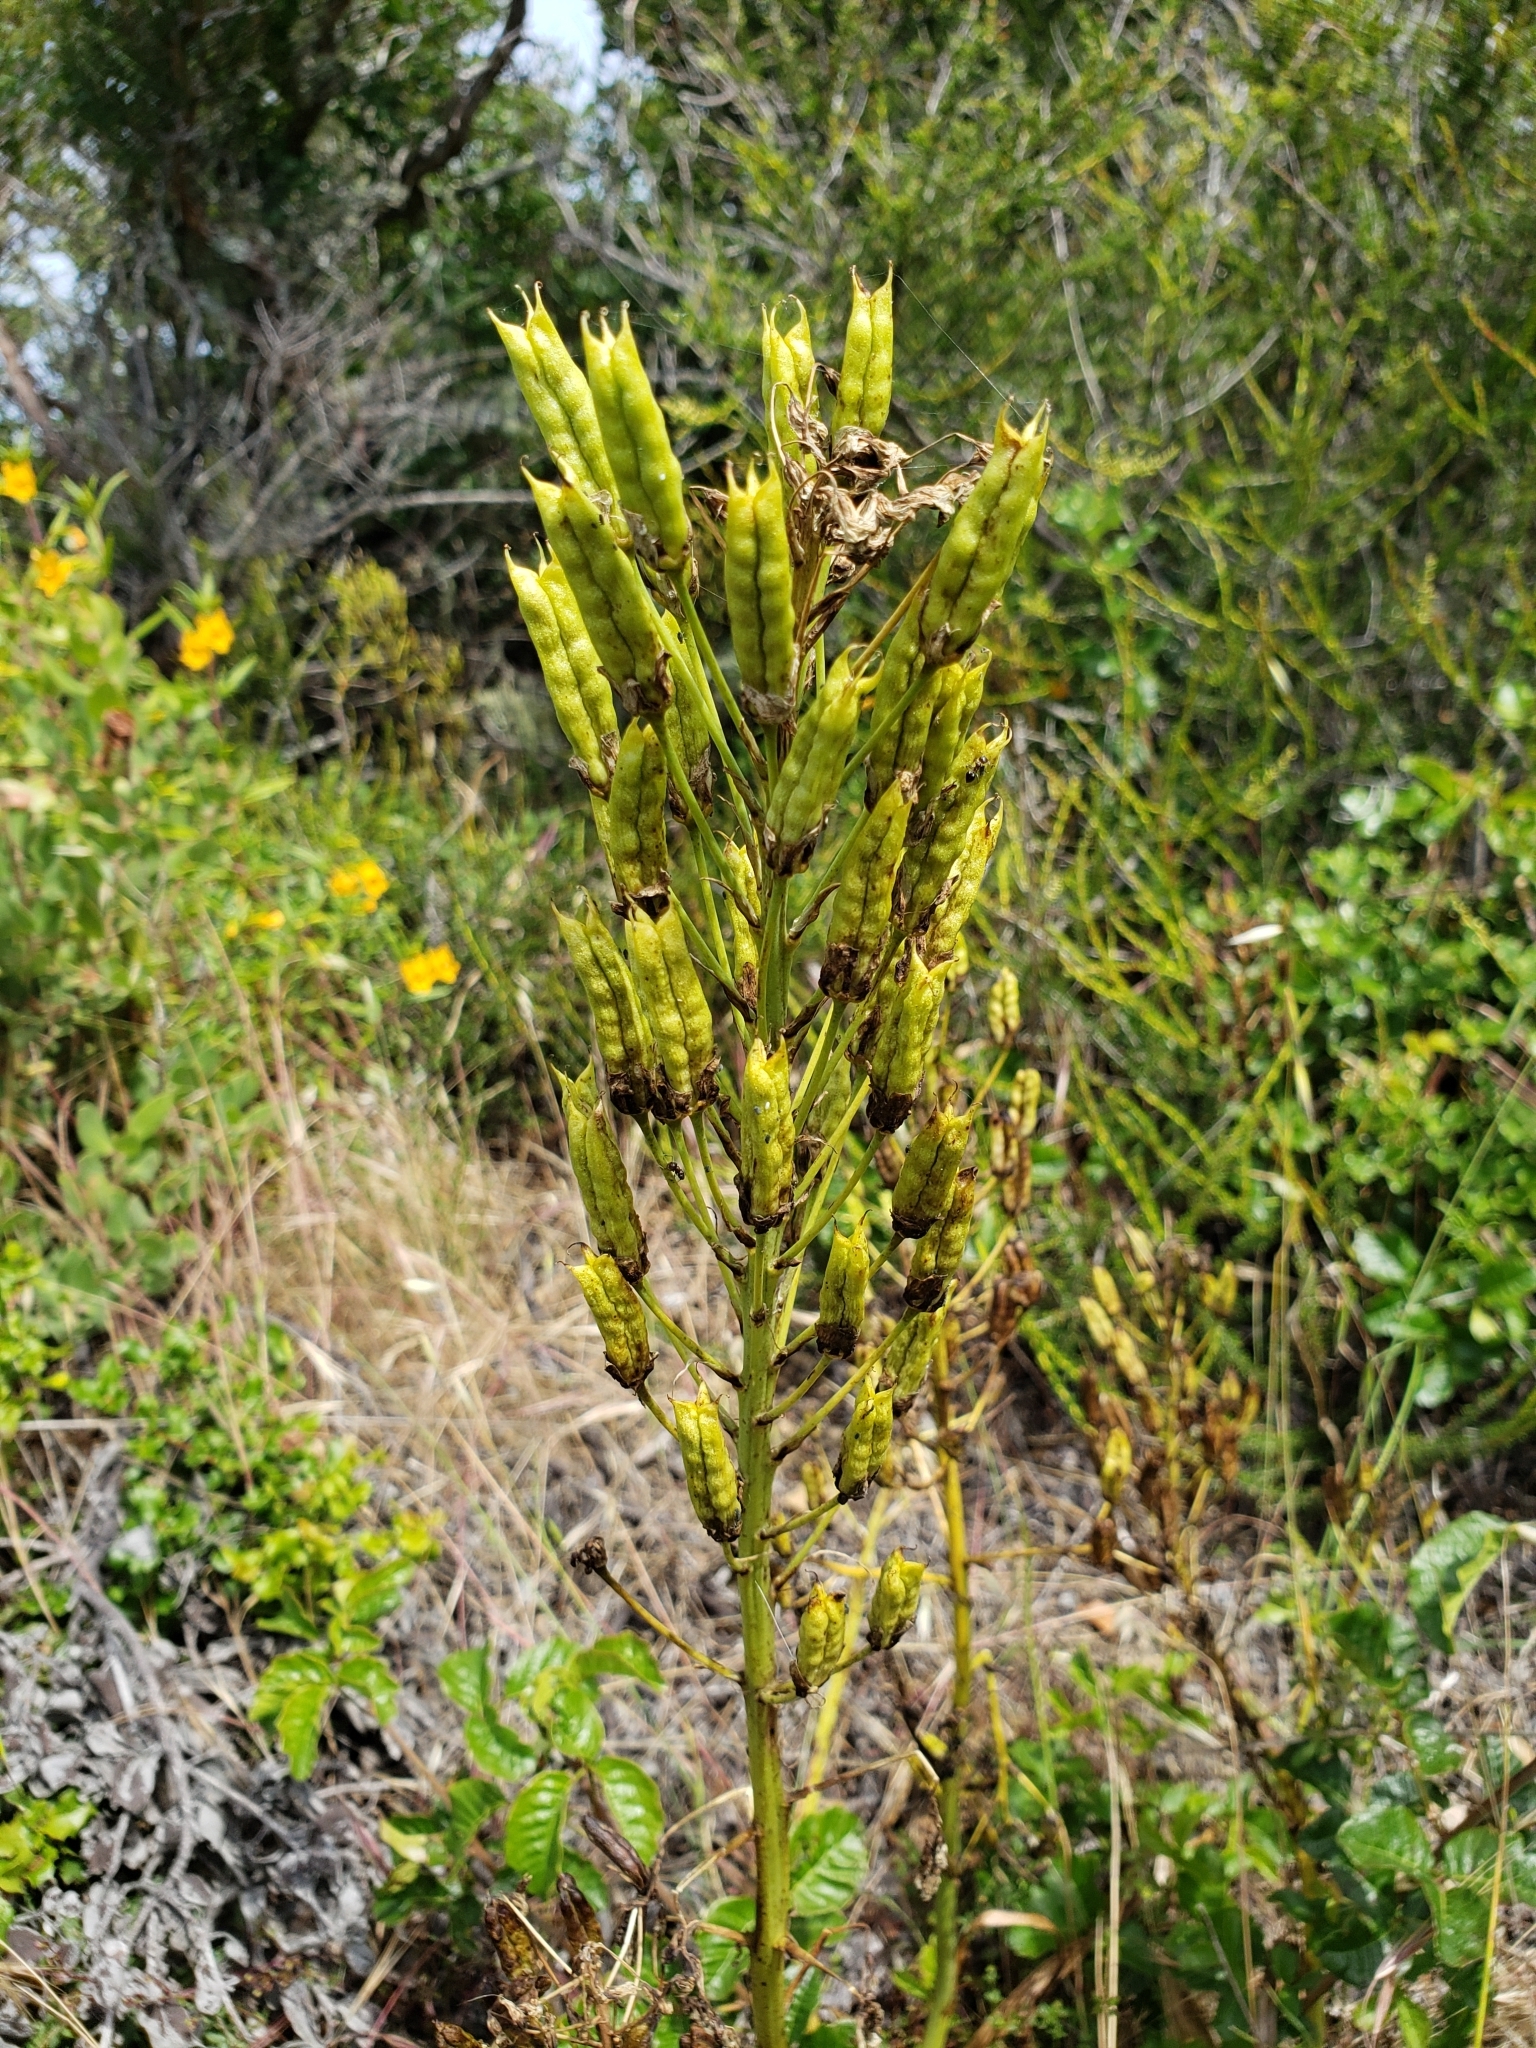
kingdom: Plantae
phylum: Tracheophyta
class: Liliopsida
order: Liliales
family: Melanthiaceae
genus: Toxicoscordion
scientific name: Toxicoscordion fremontii
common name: Fremont's death camas
